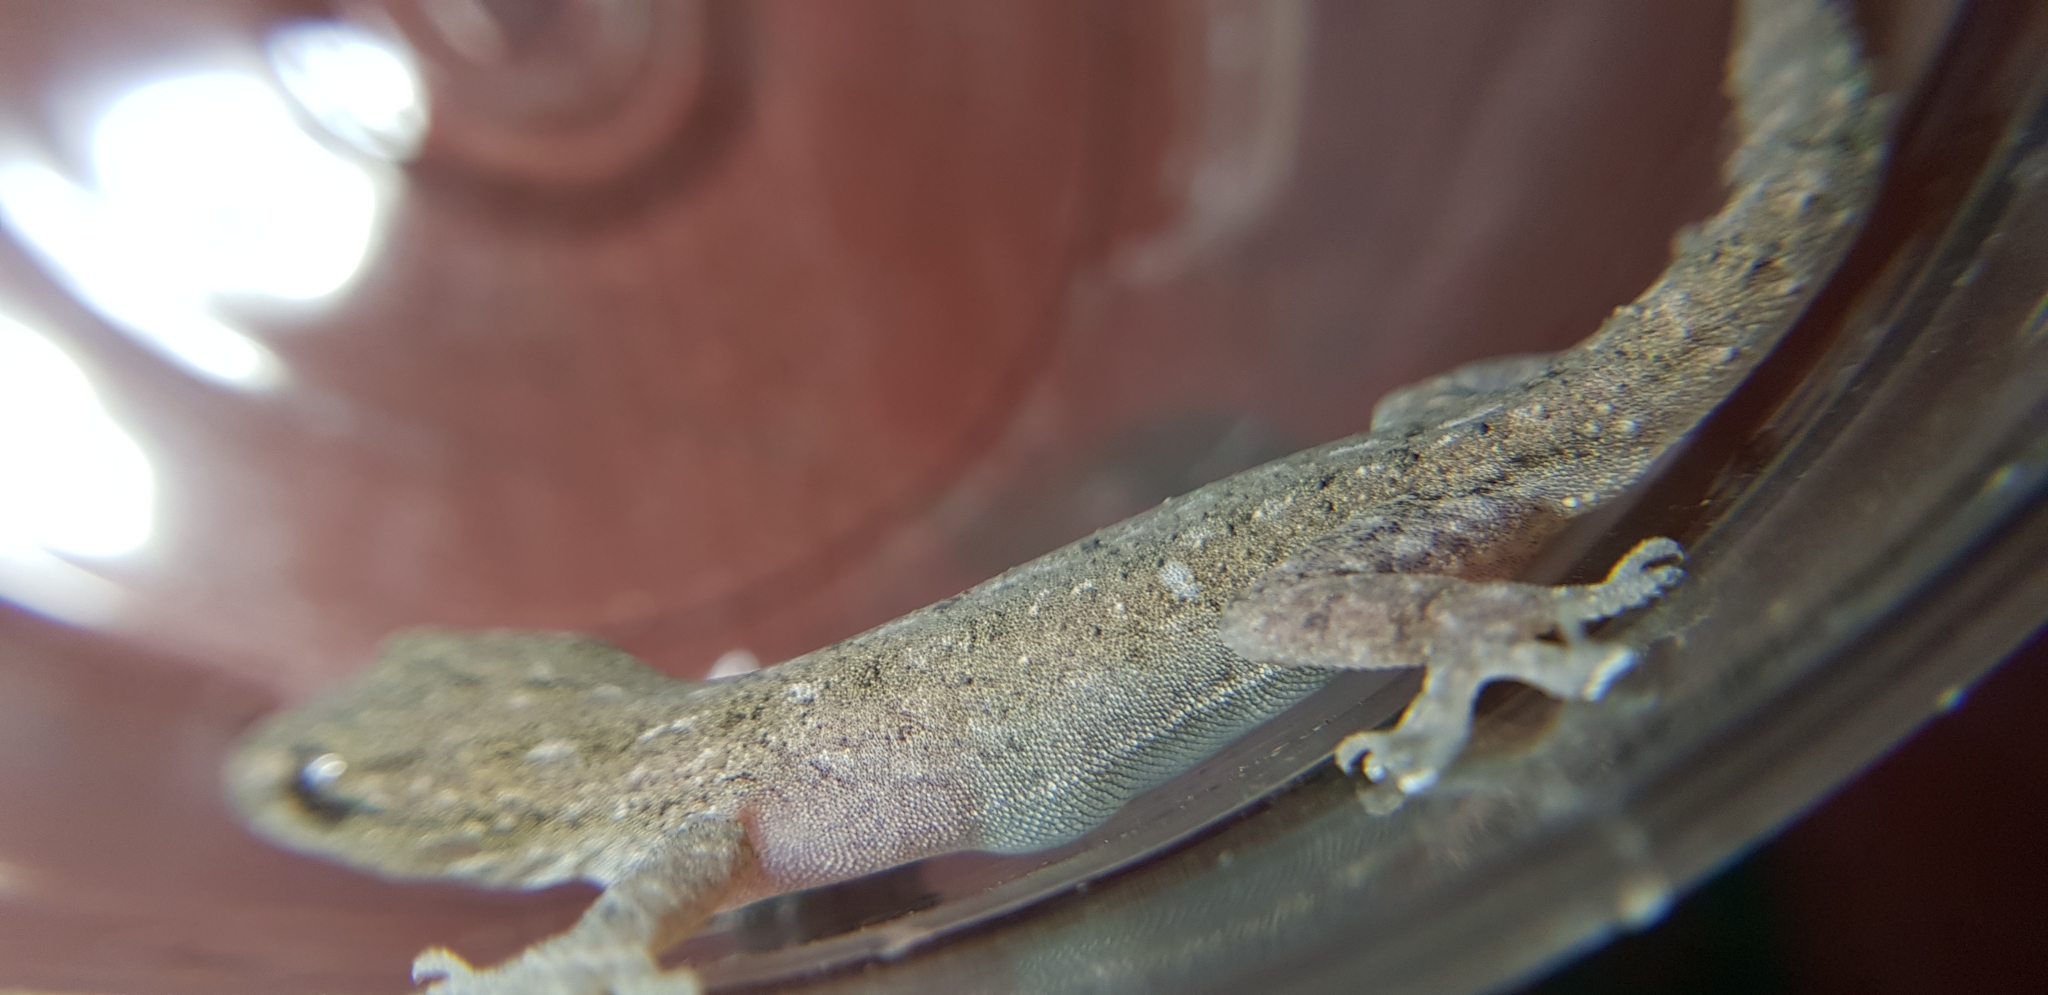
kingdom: Animalia
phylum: Chordata
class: Squamata
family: Gekkonidae
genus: Hemidactylus
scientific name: Hemidactylus frenatus
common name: Common house gecko
